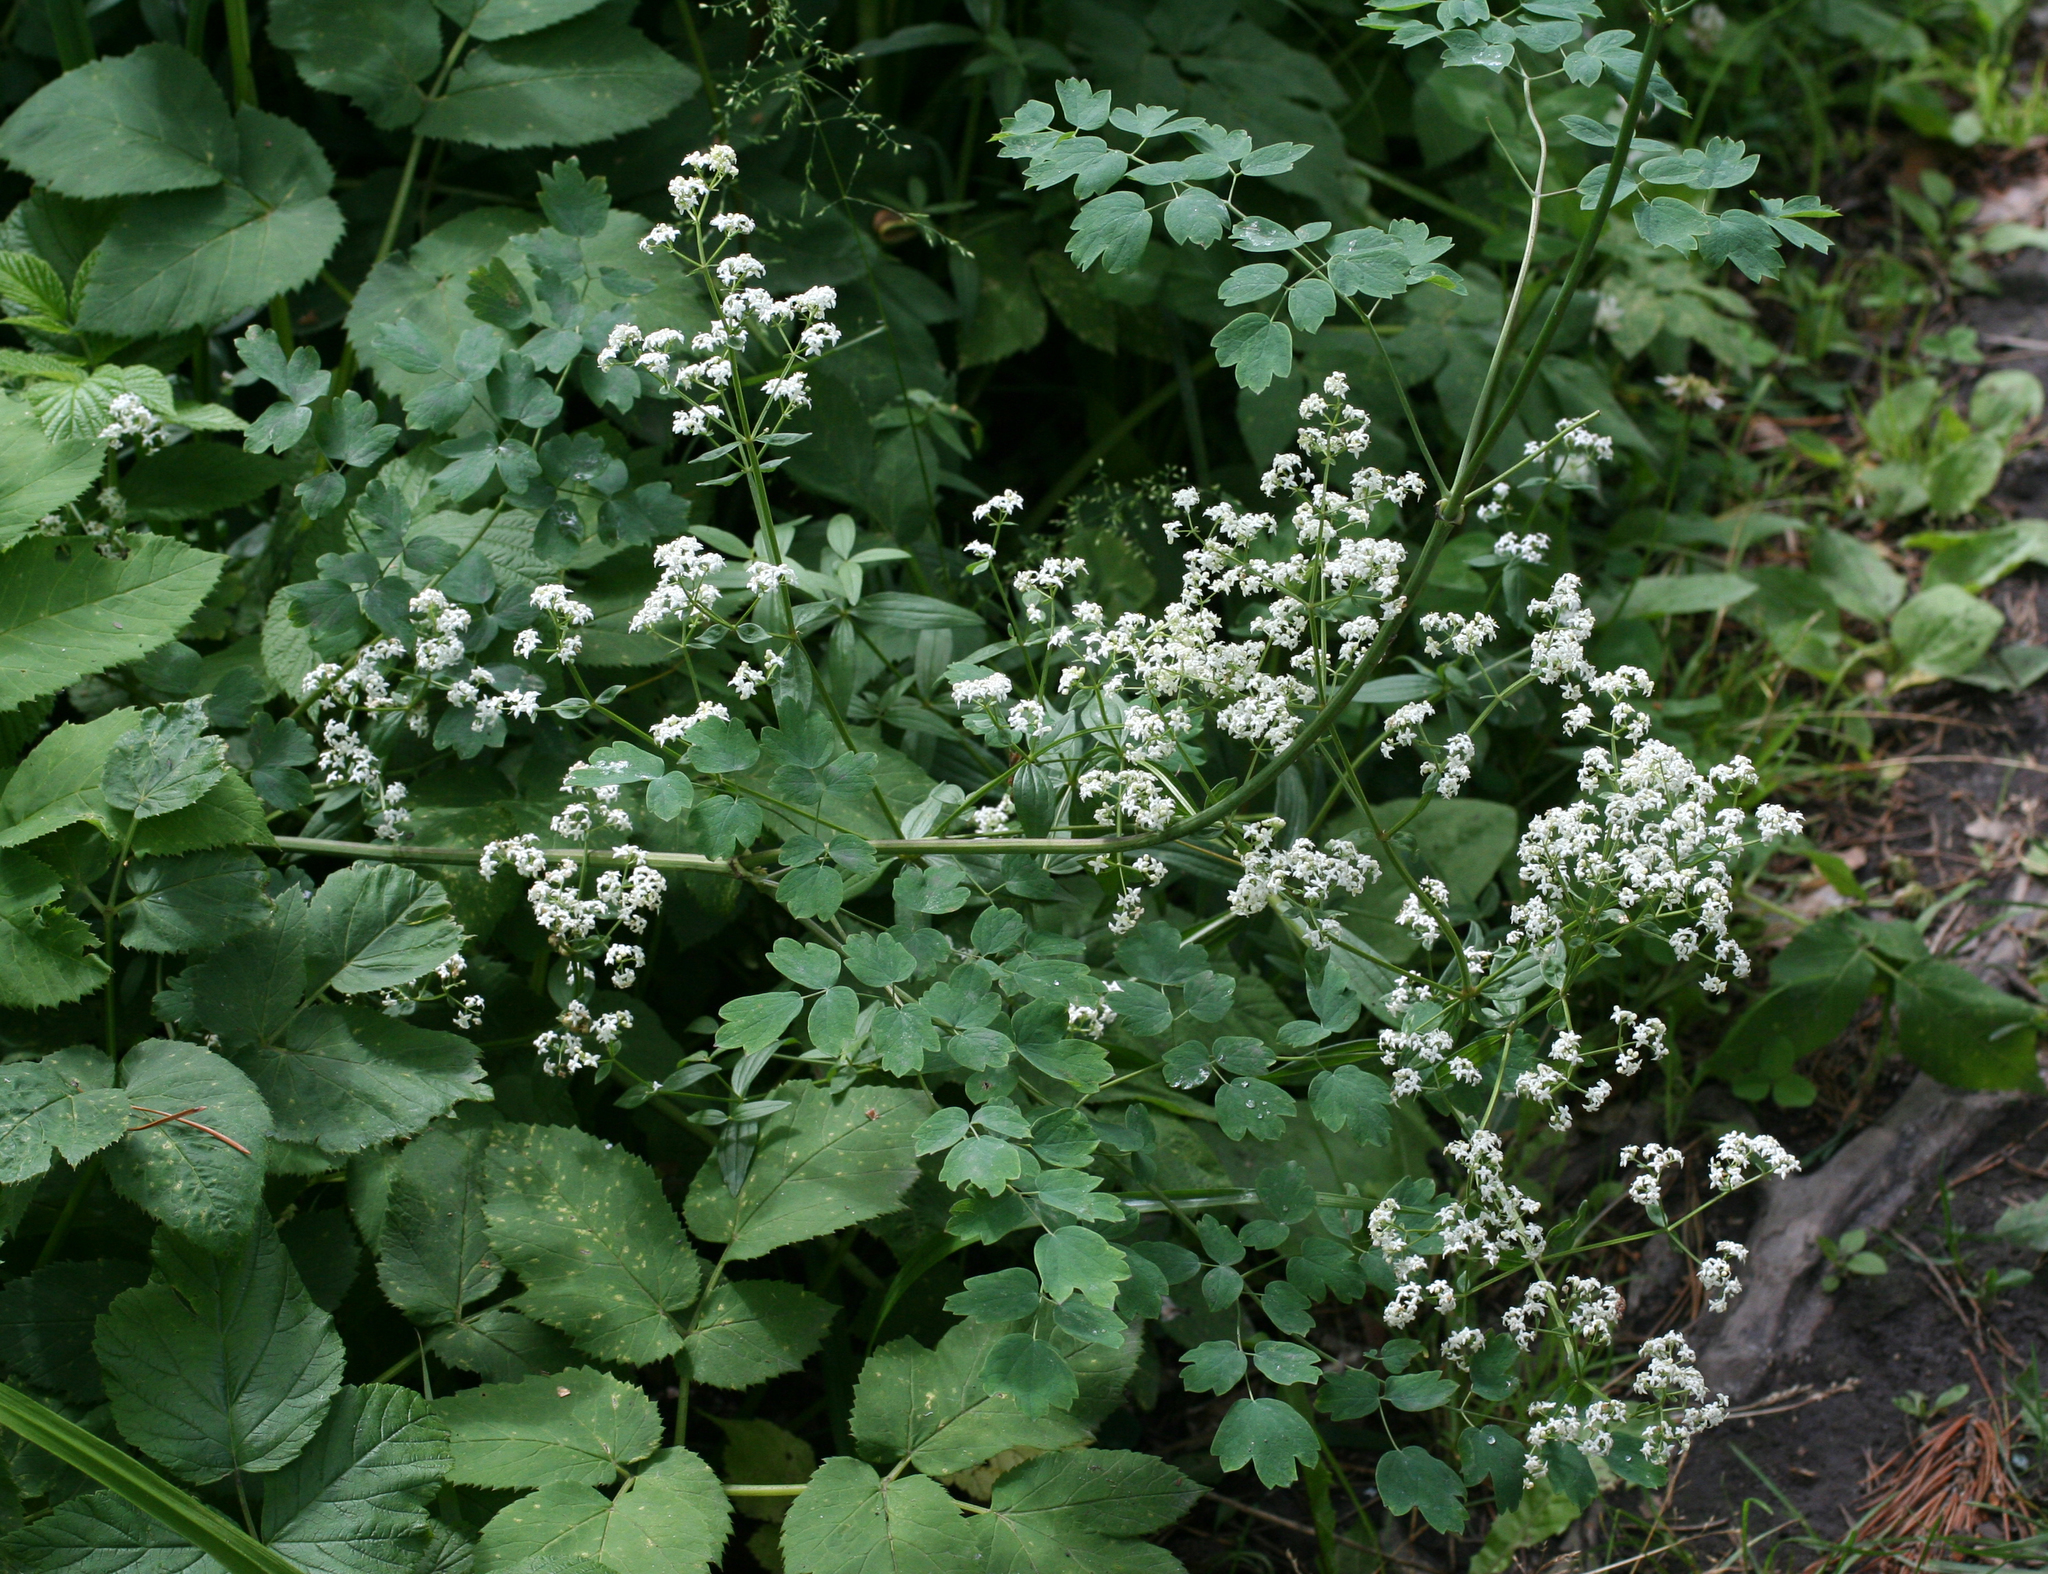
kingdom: Plantae
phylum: Tracheophyta
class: Magnoliopsida
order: Ranunculales
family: Ranunculaceae
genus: Thalictrum
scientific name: Thalictrum minus
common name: Lesser meadow-rue
